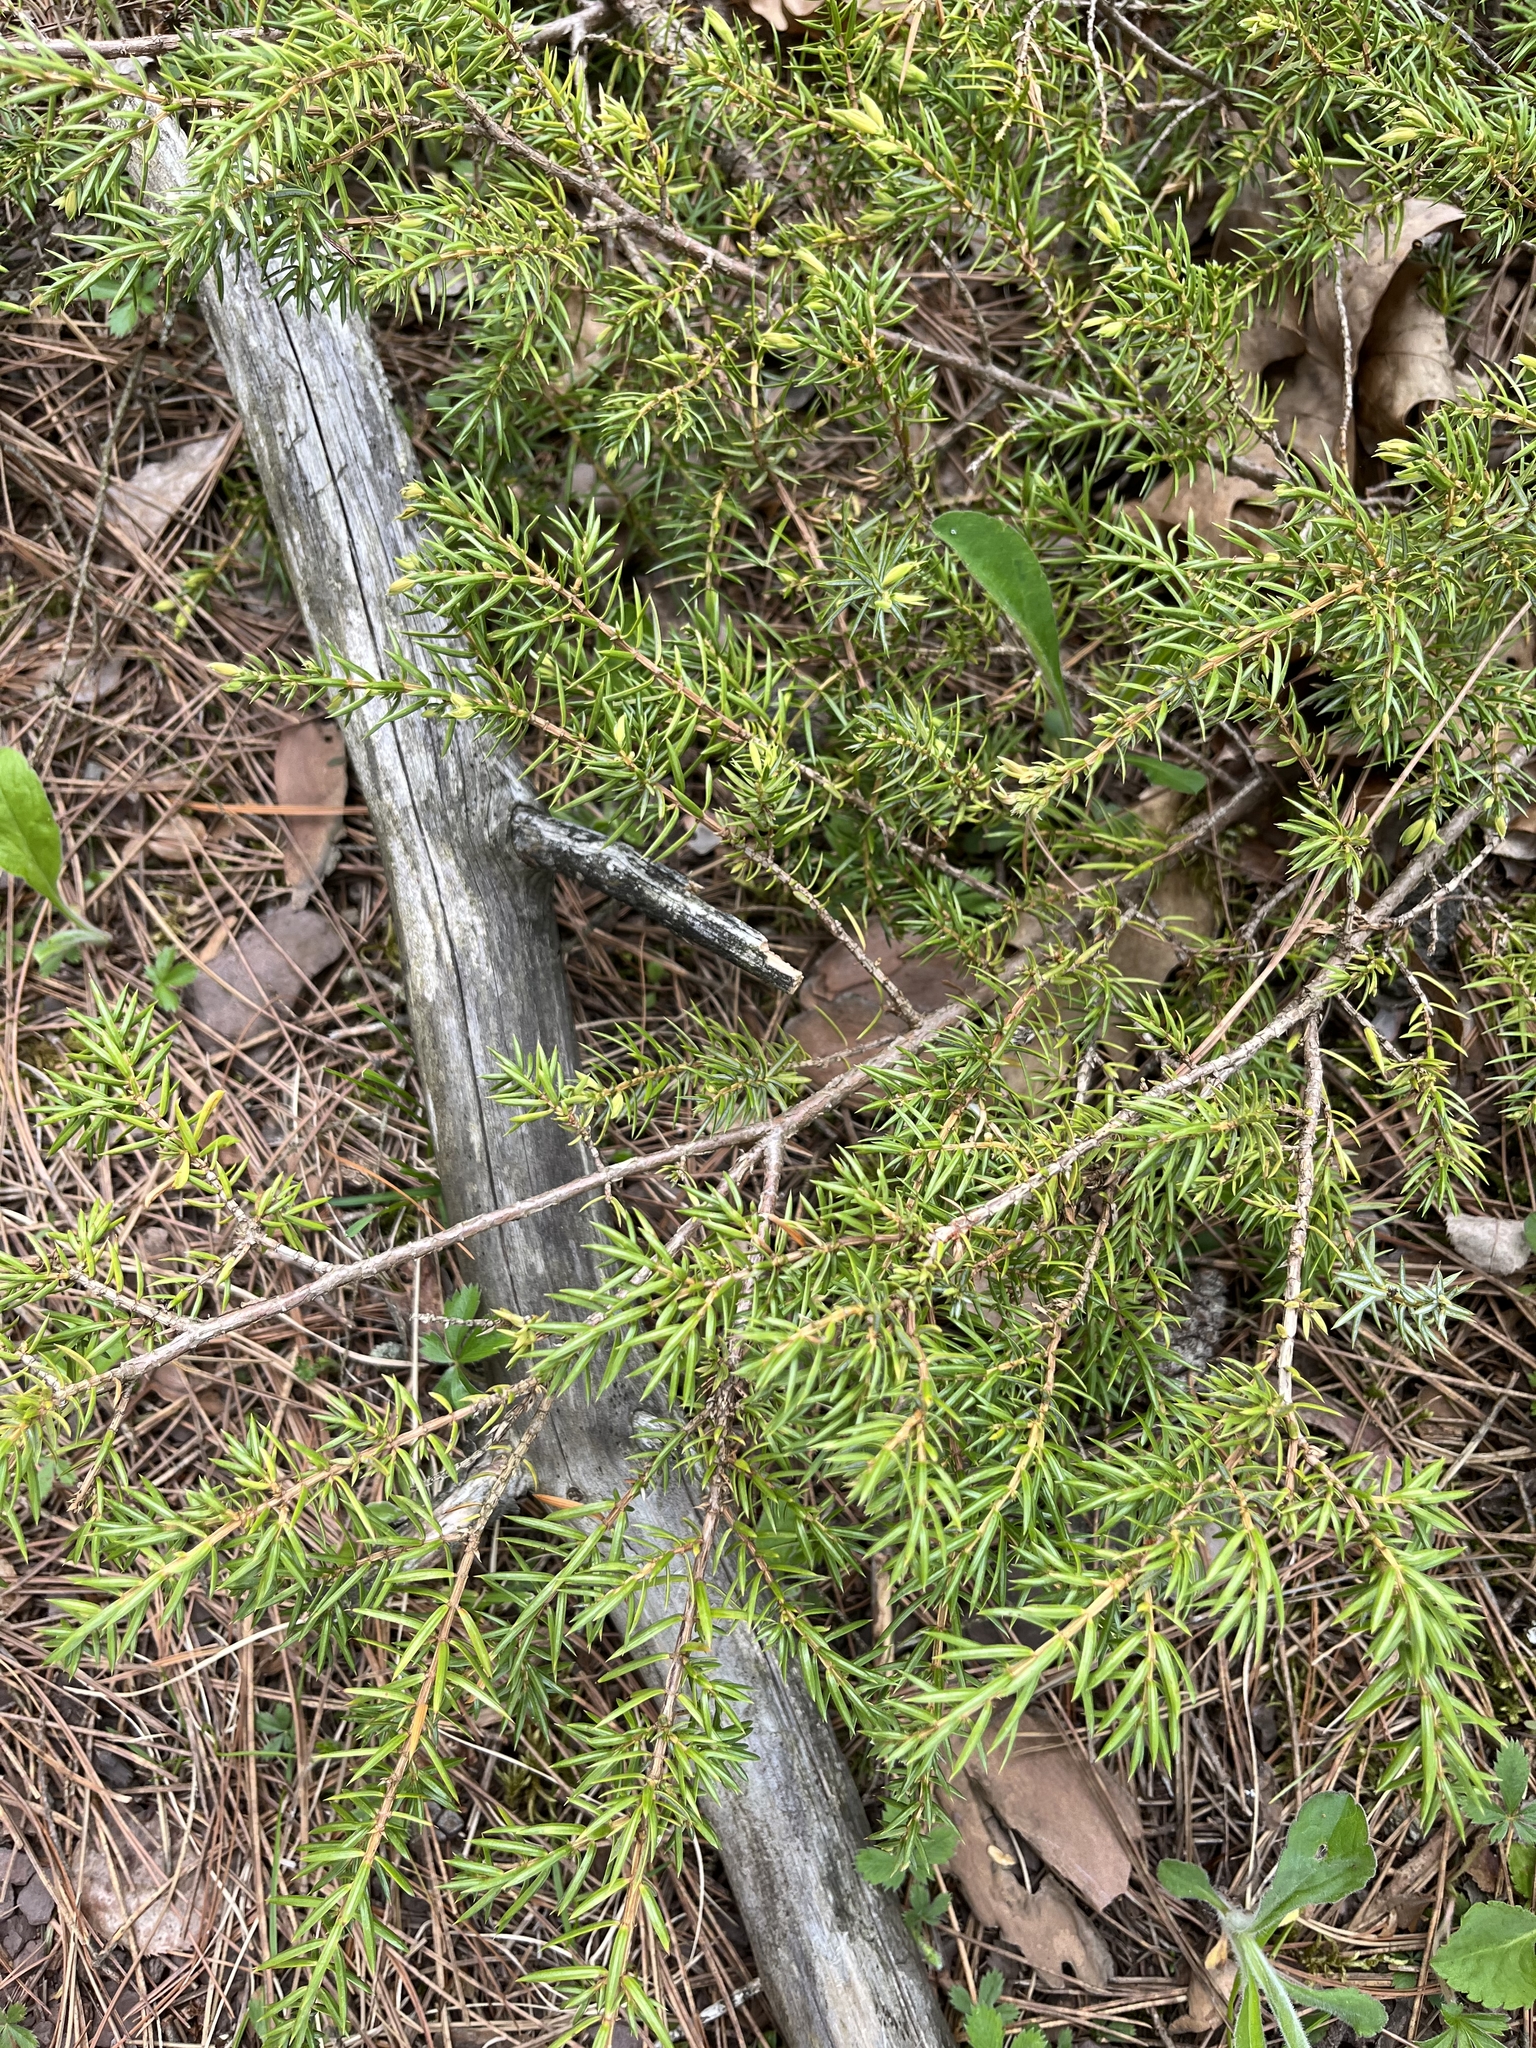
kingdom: Plantae
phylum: Tracheophyta
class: Pinopsida
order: Pinales
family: Cupressaceae
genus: Juniperus
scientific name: Juniperus communis
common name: Common juniper
